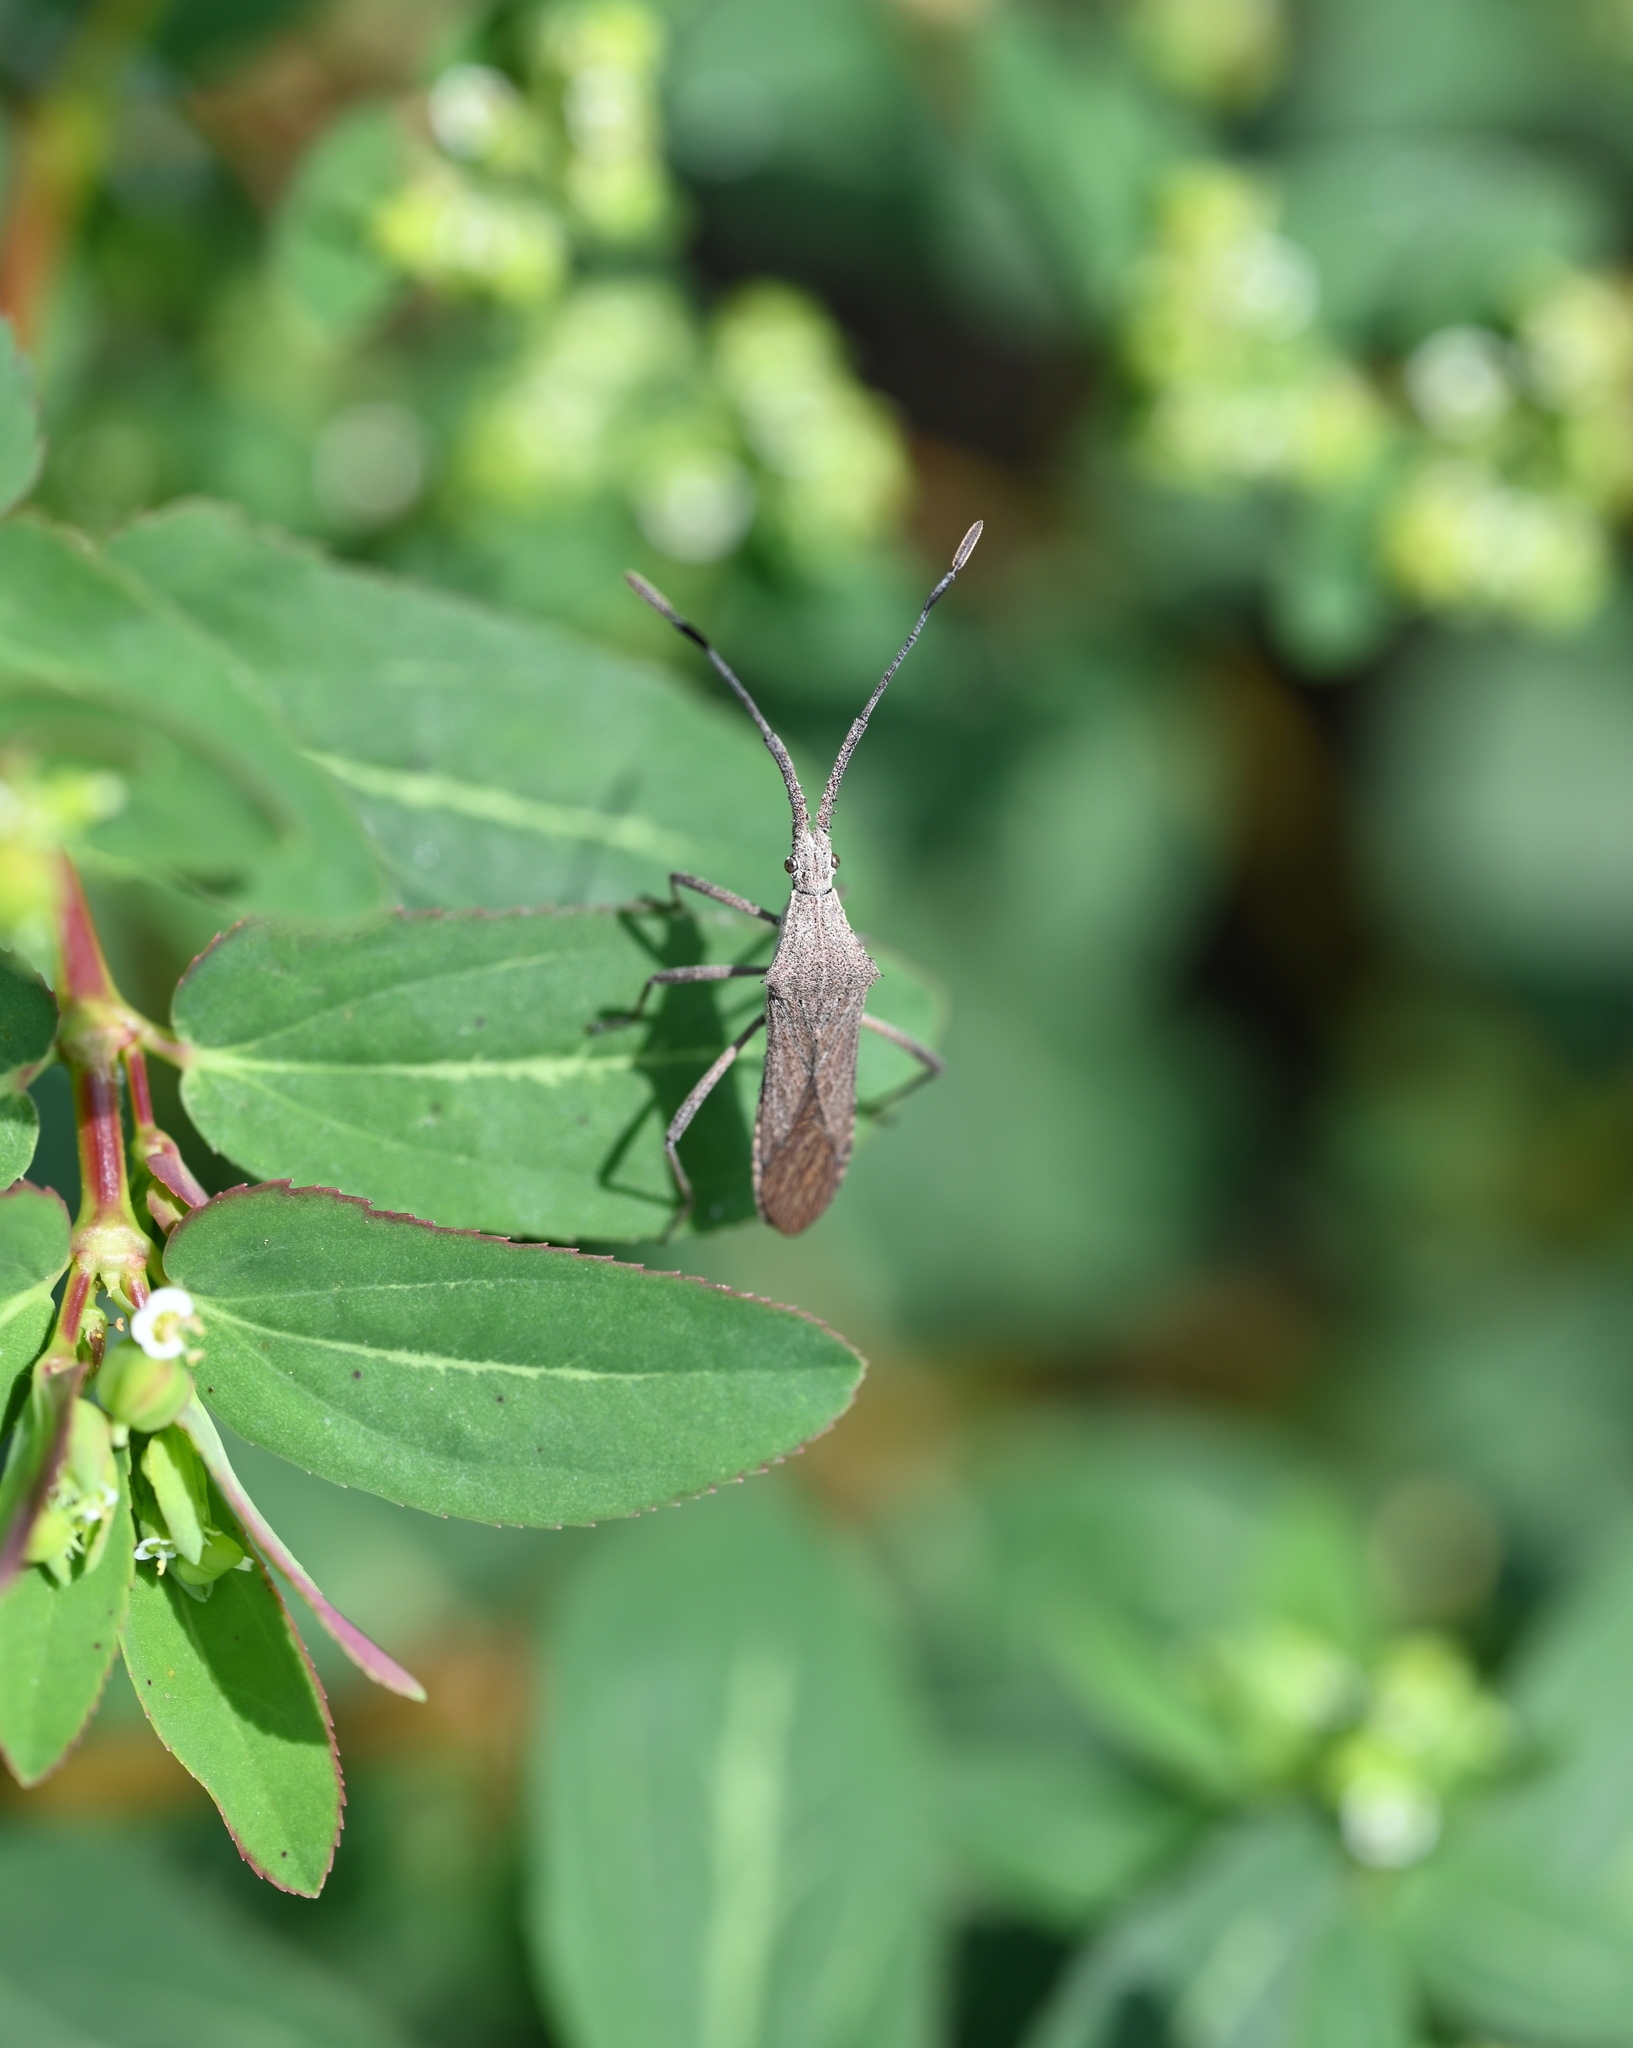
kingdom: Animalia
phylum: Arthropoda
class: Insecta
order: Hemiptera
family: Coreidae
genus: Chariesterus
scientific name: Chariesterus antennator
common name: Flat horned coreid
